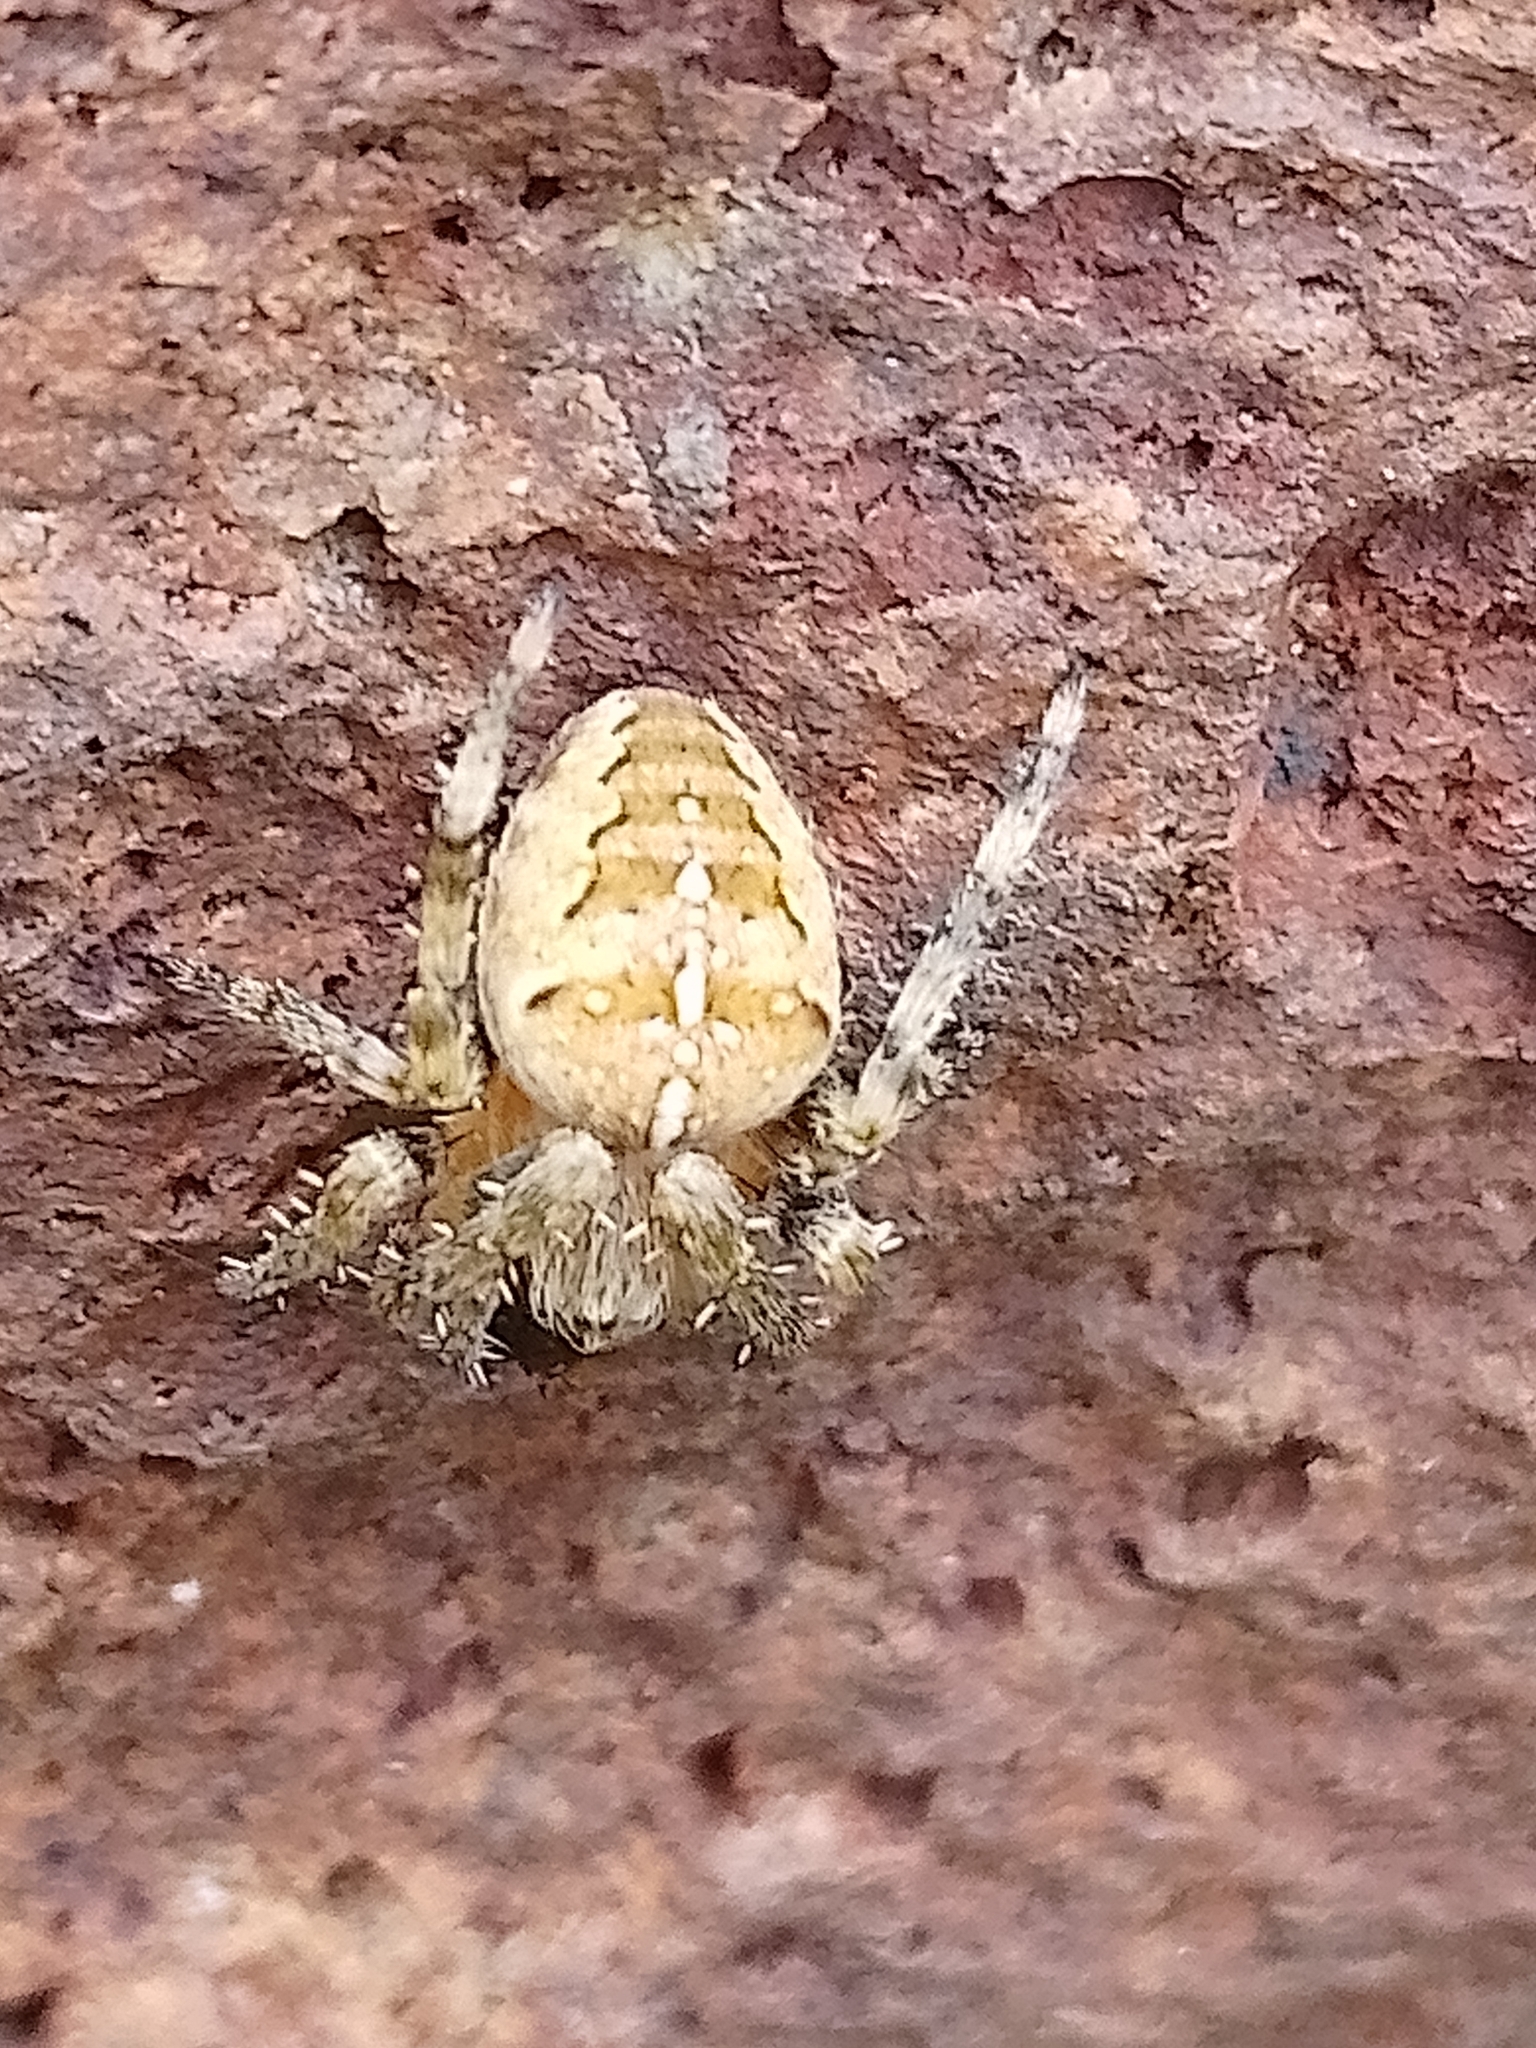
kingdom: Animalia
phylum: Arthropoda
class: Arachnida
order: Araneae
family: Araneidae
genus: Araneus
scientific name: Araneus diadematus
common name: Cross orbweaver
